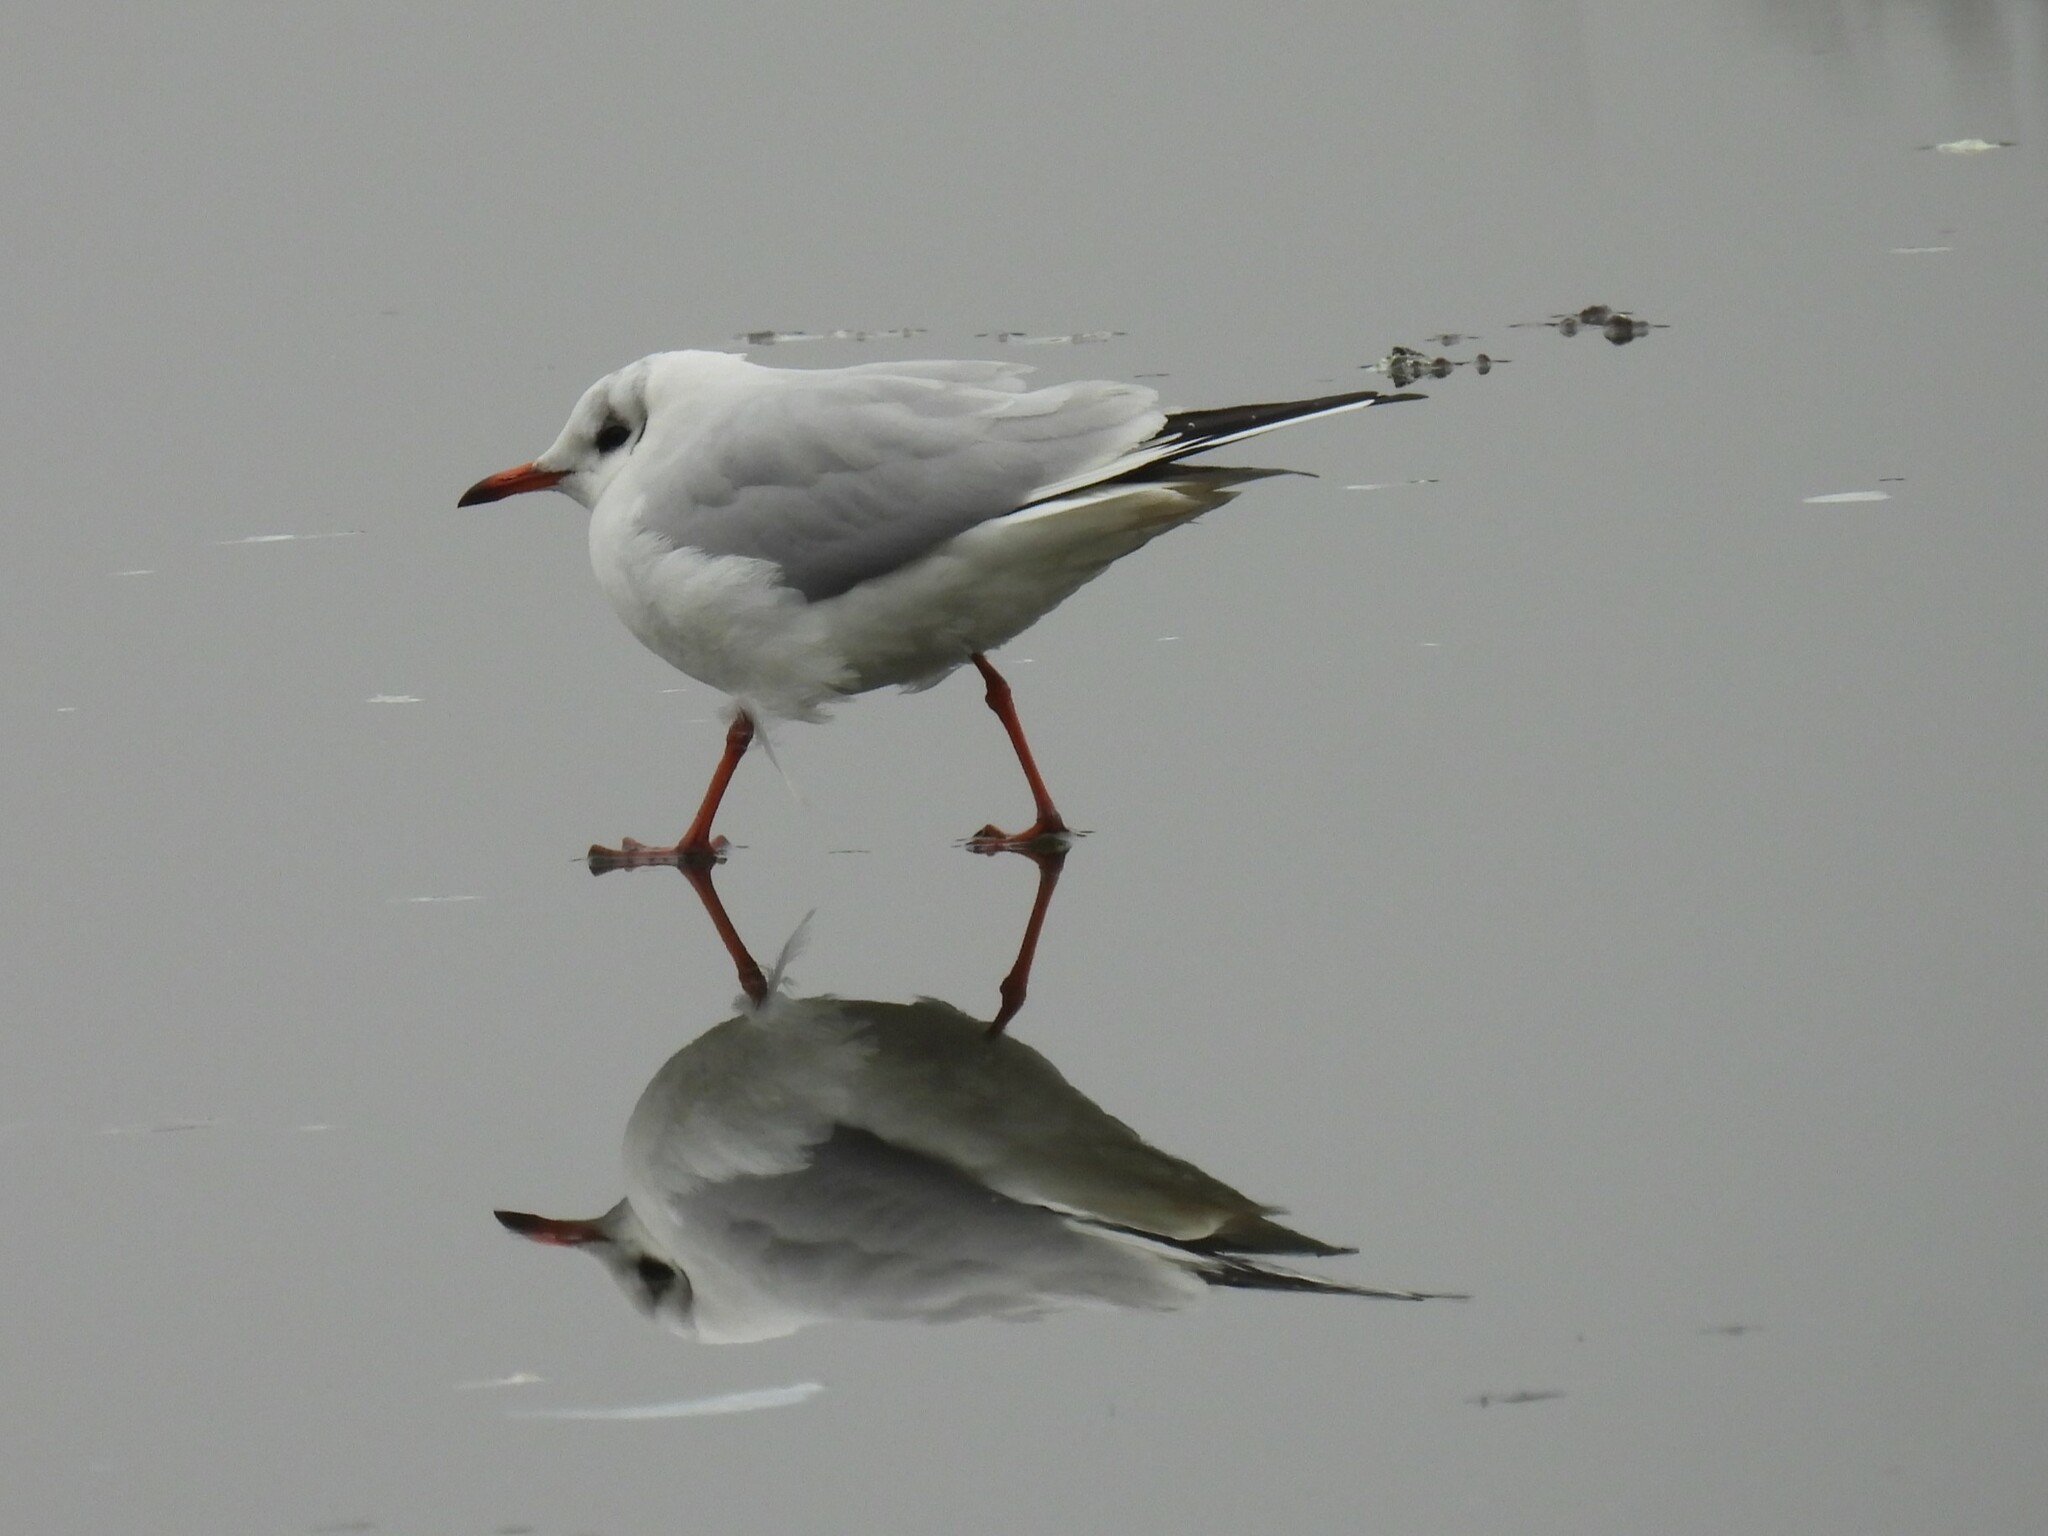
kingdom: Animalia
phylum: Chordata
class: Aves
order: Charadriiformes
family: Laridae
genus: Chroicocephalus
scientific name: Chroicocephalus ridibundus
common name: Black-headed gull
